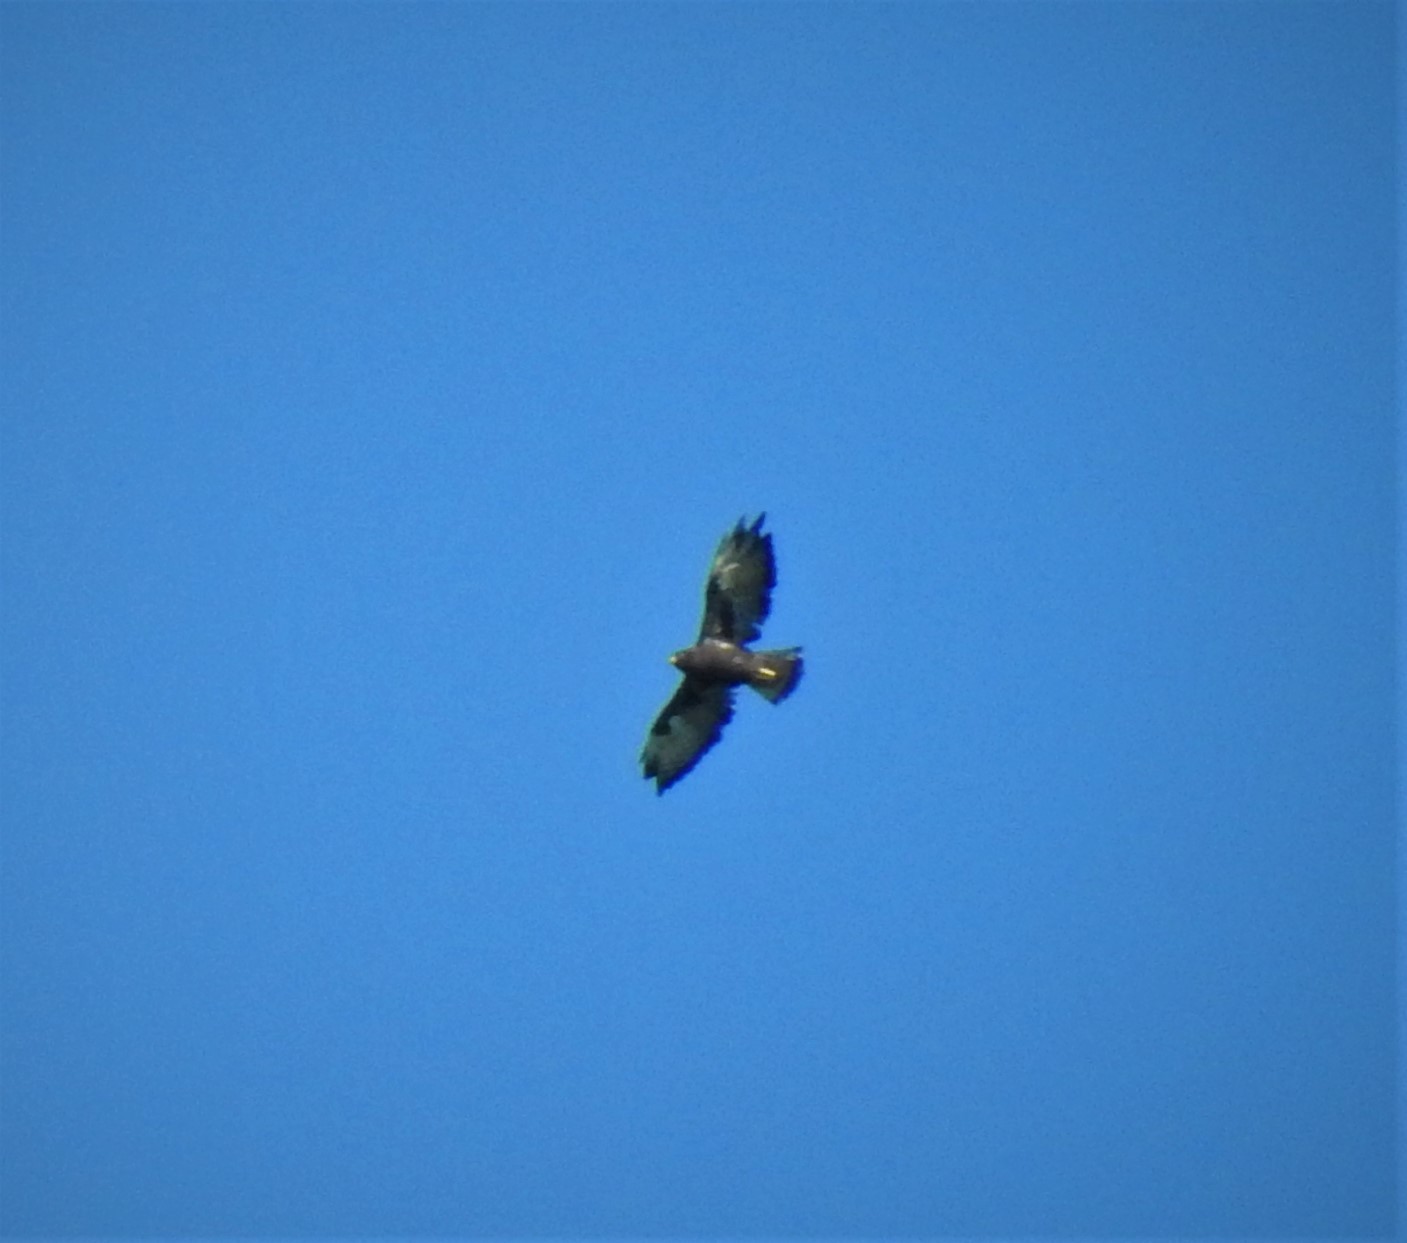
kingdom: Animalia
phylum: Chordata
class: Aves
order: Accipitriformes
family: Accipitridae
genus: Buteo
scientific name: Buteo jamaicensis
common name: Red-tailed hawk
